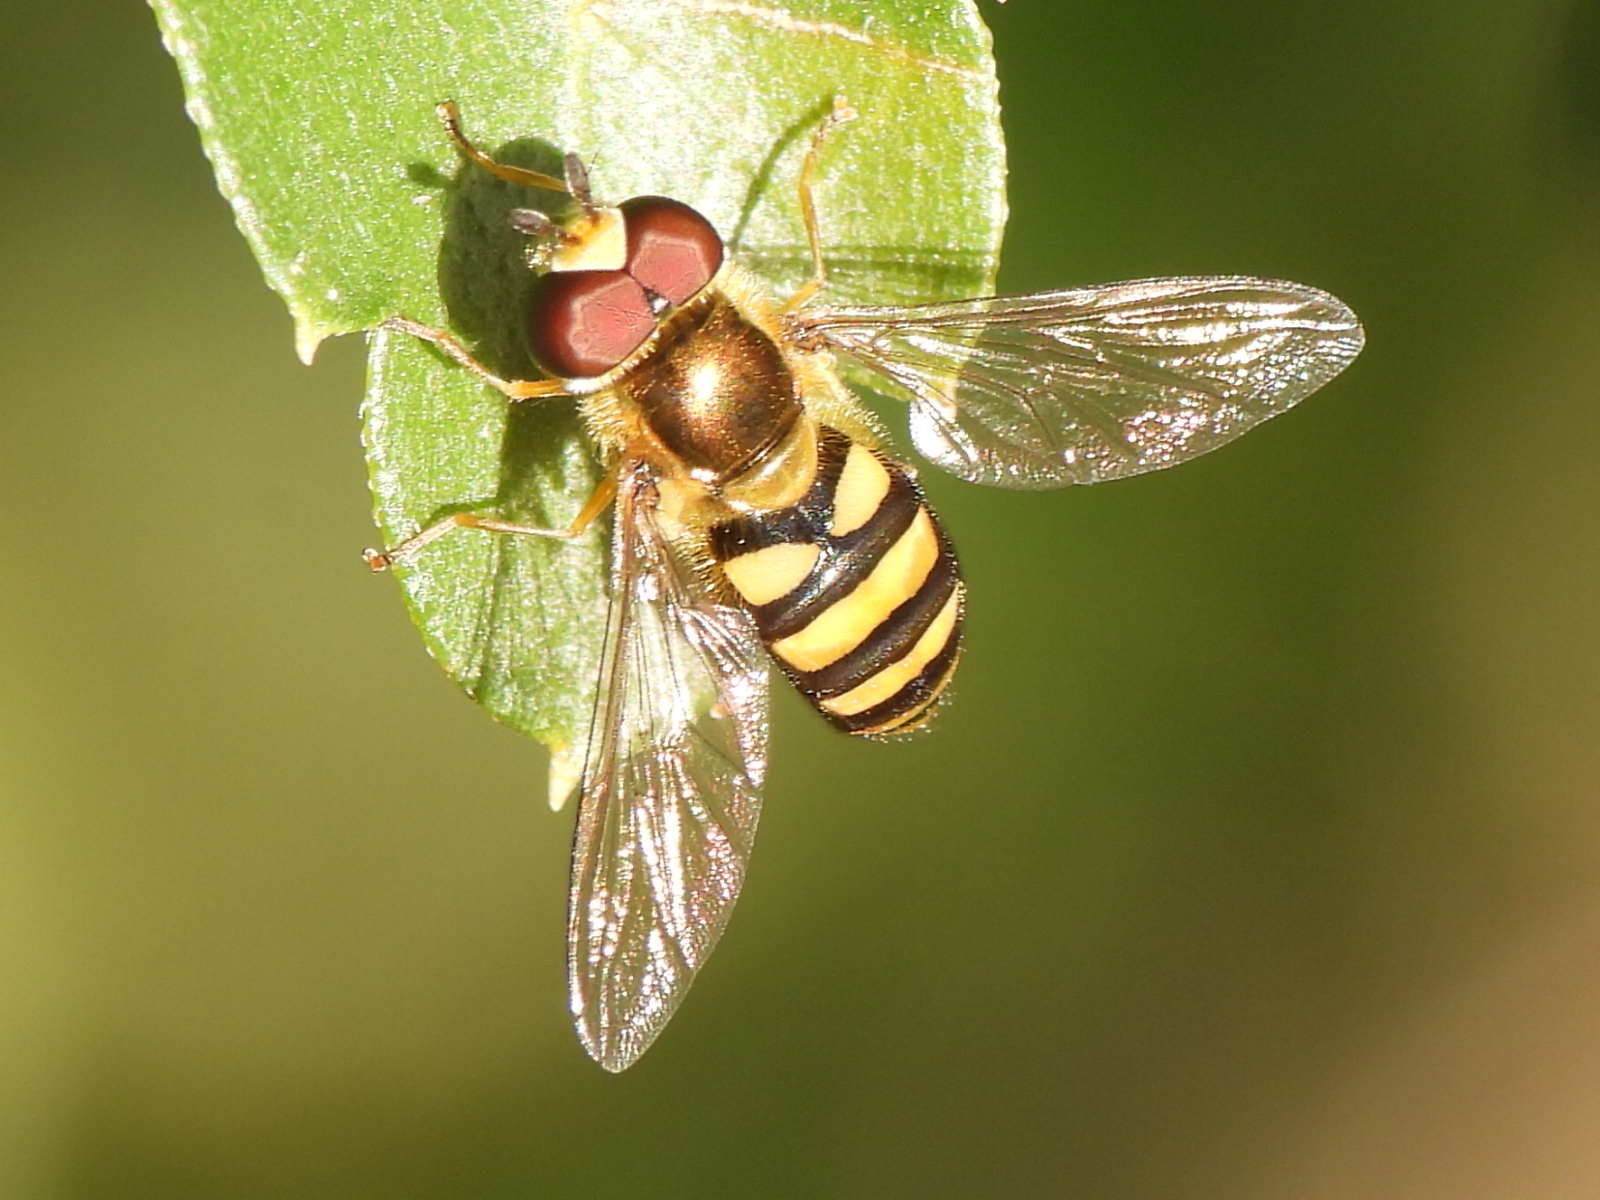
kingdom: Animalia
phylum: Arthropoda
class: Insecta
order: Diptera
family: Syrphidae
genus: Eupeodes
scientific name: Eupeodes
